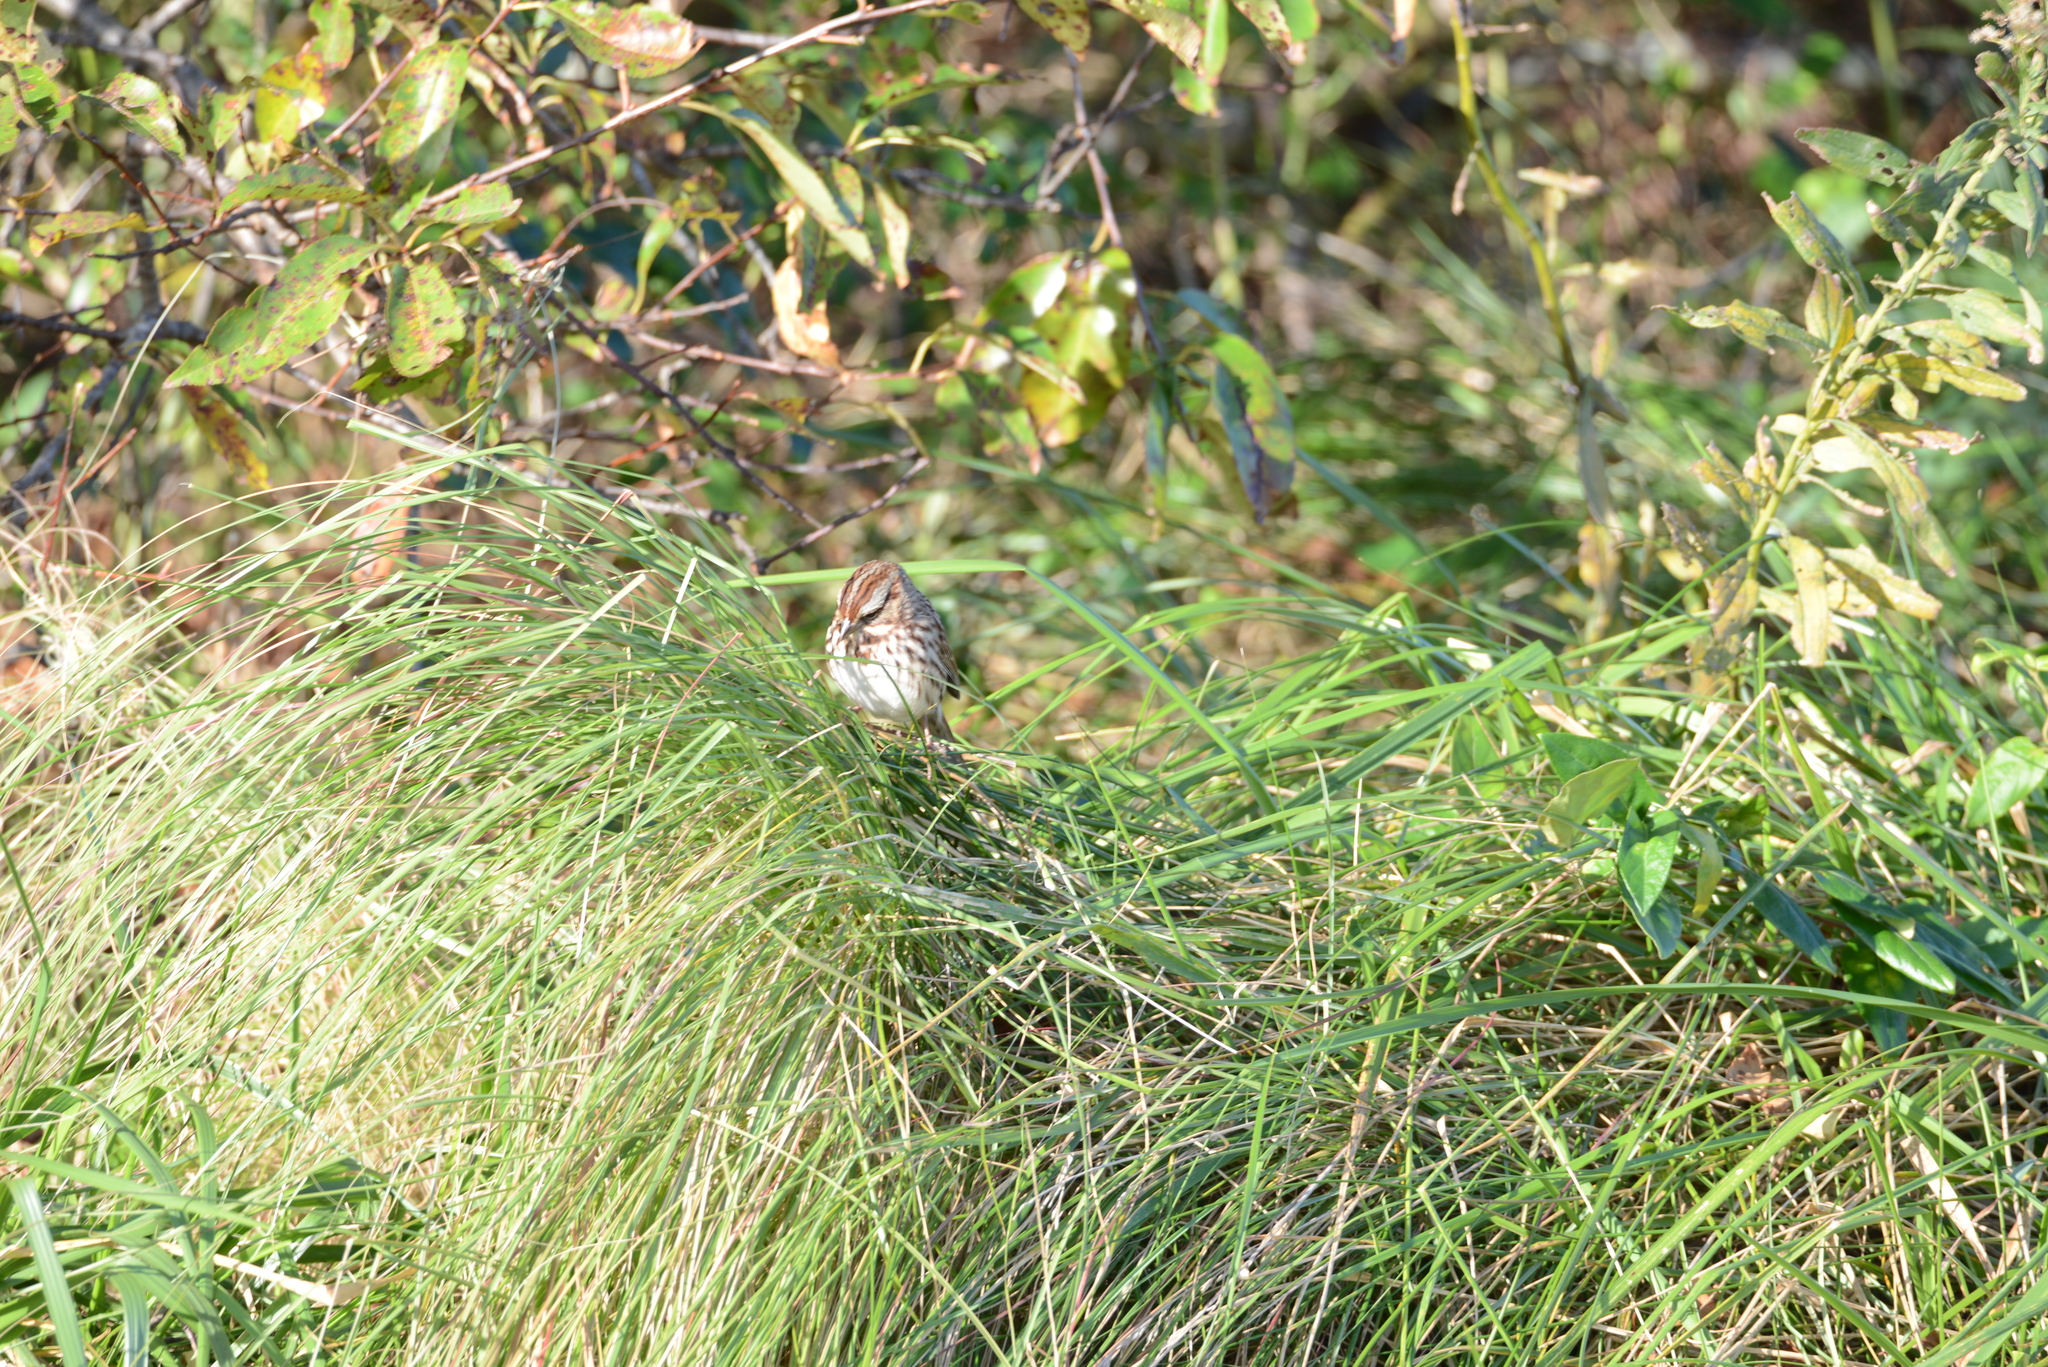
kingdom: Animalia
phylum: Chordata
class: Aves
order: Passeriformes
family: Passerellidae
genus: Melospiza
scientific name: Melospiza melodia
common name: Song sparrow
